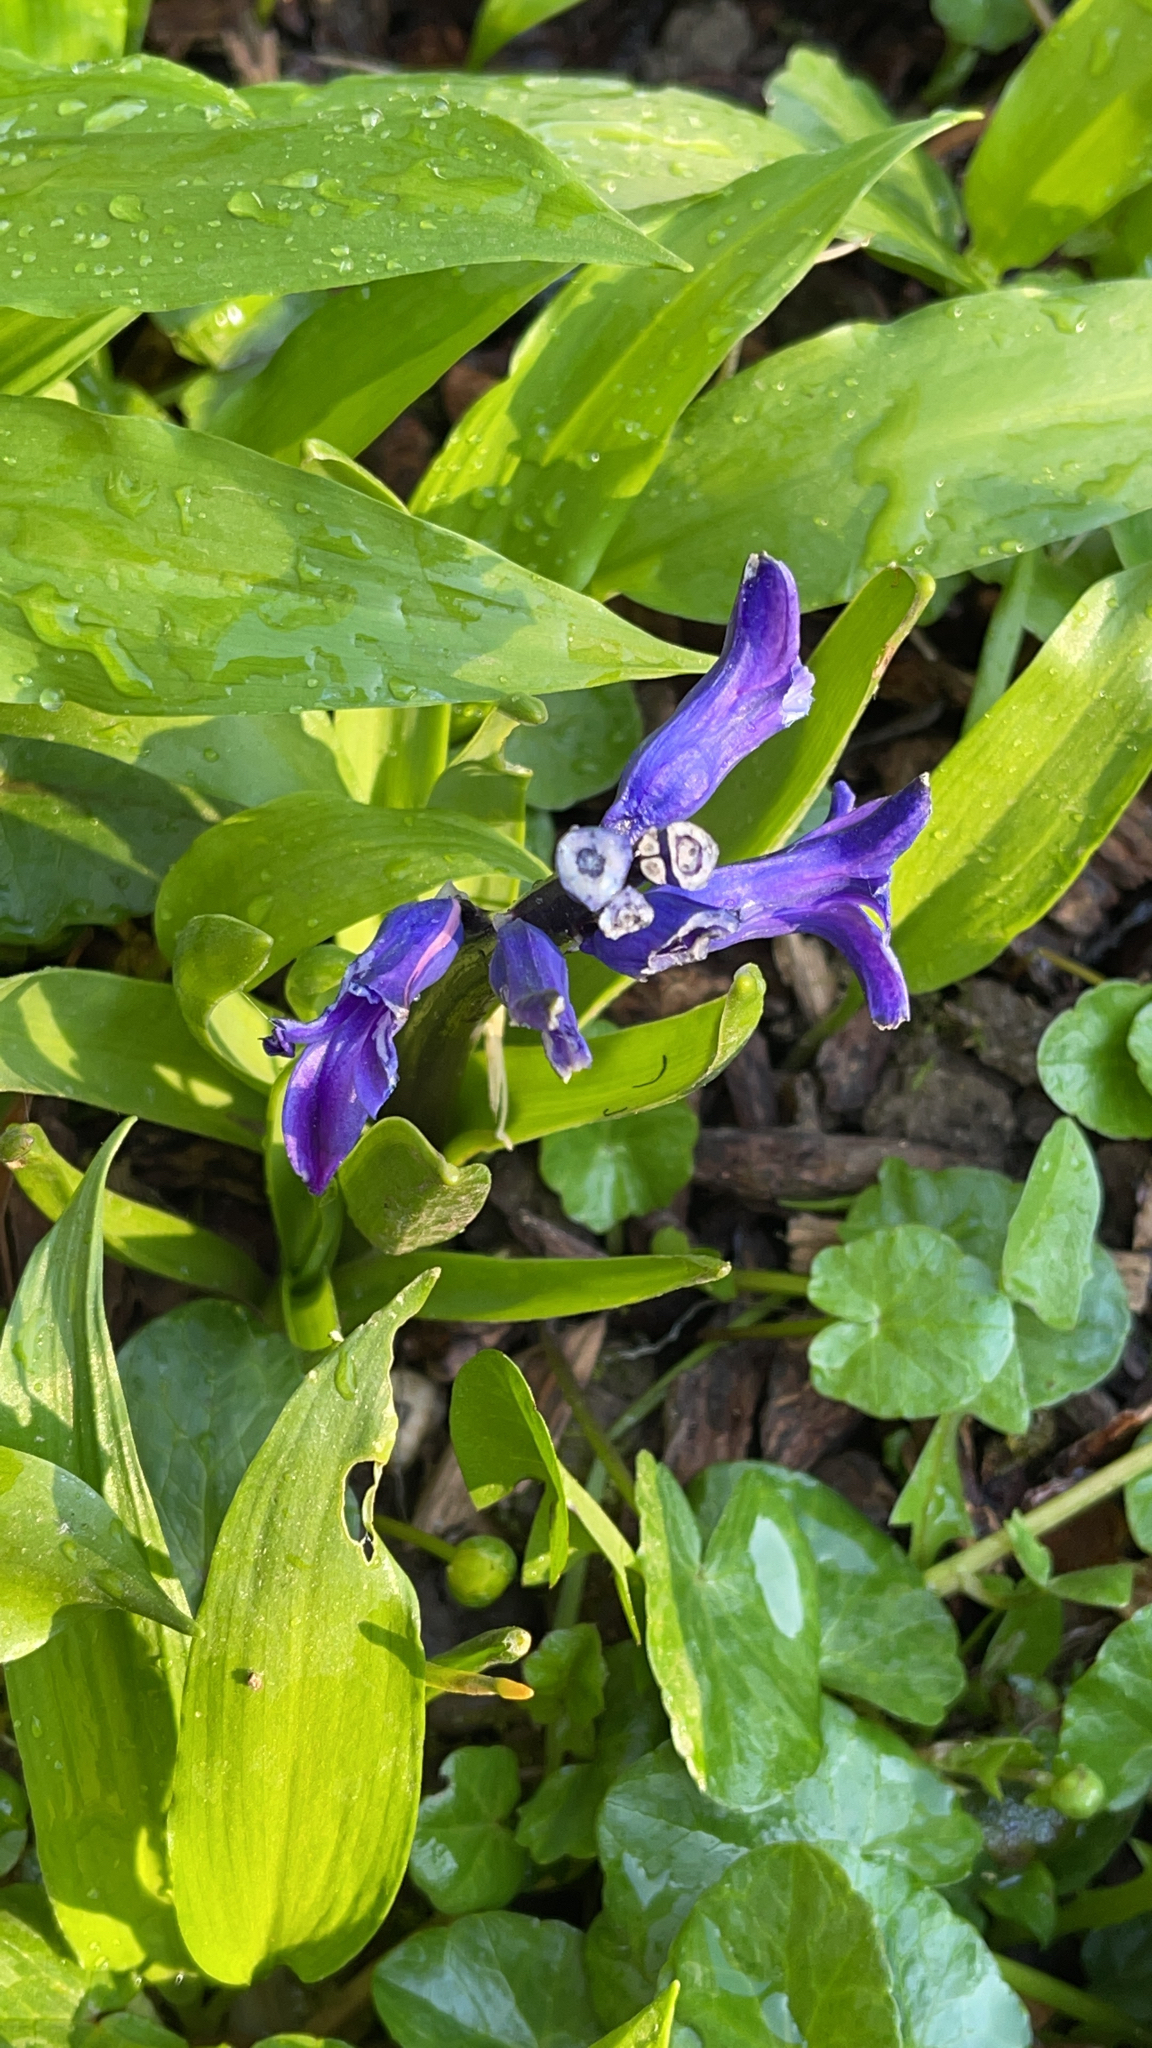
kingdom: Plantae
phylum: Tracheophyta
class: Liliopsida
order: Asparagales
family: Asparagaceae
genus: Hyacinthus
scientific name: Hyacinthus orientalis
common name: Hyacinth
